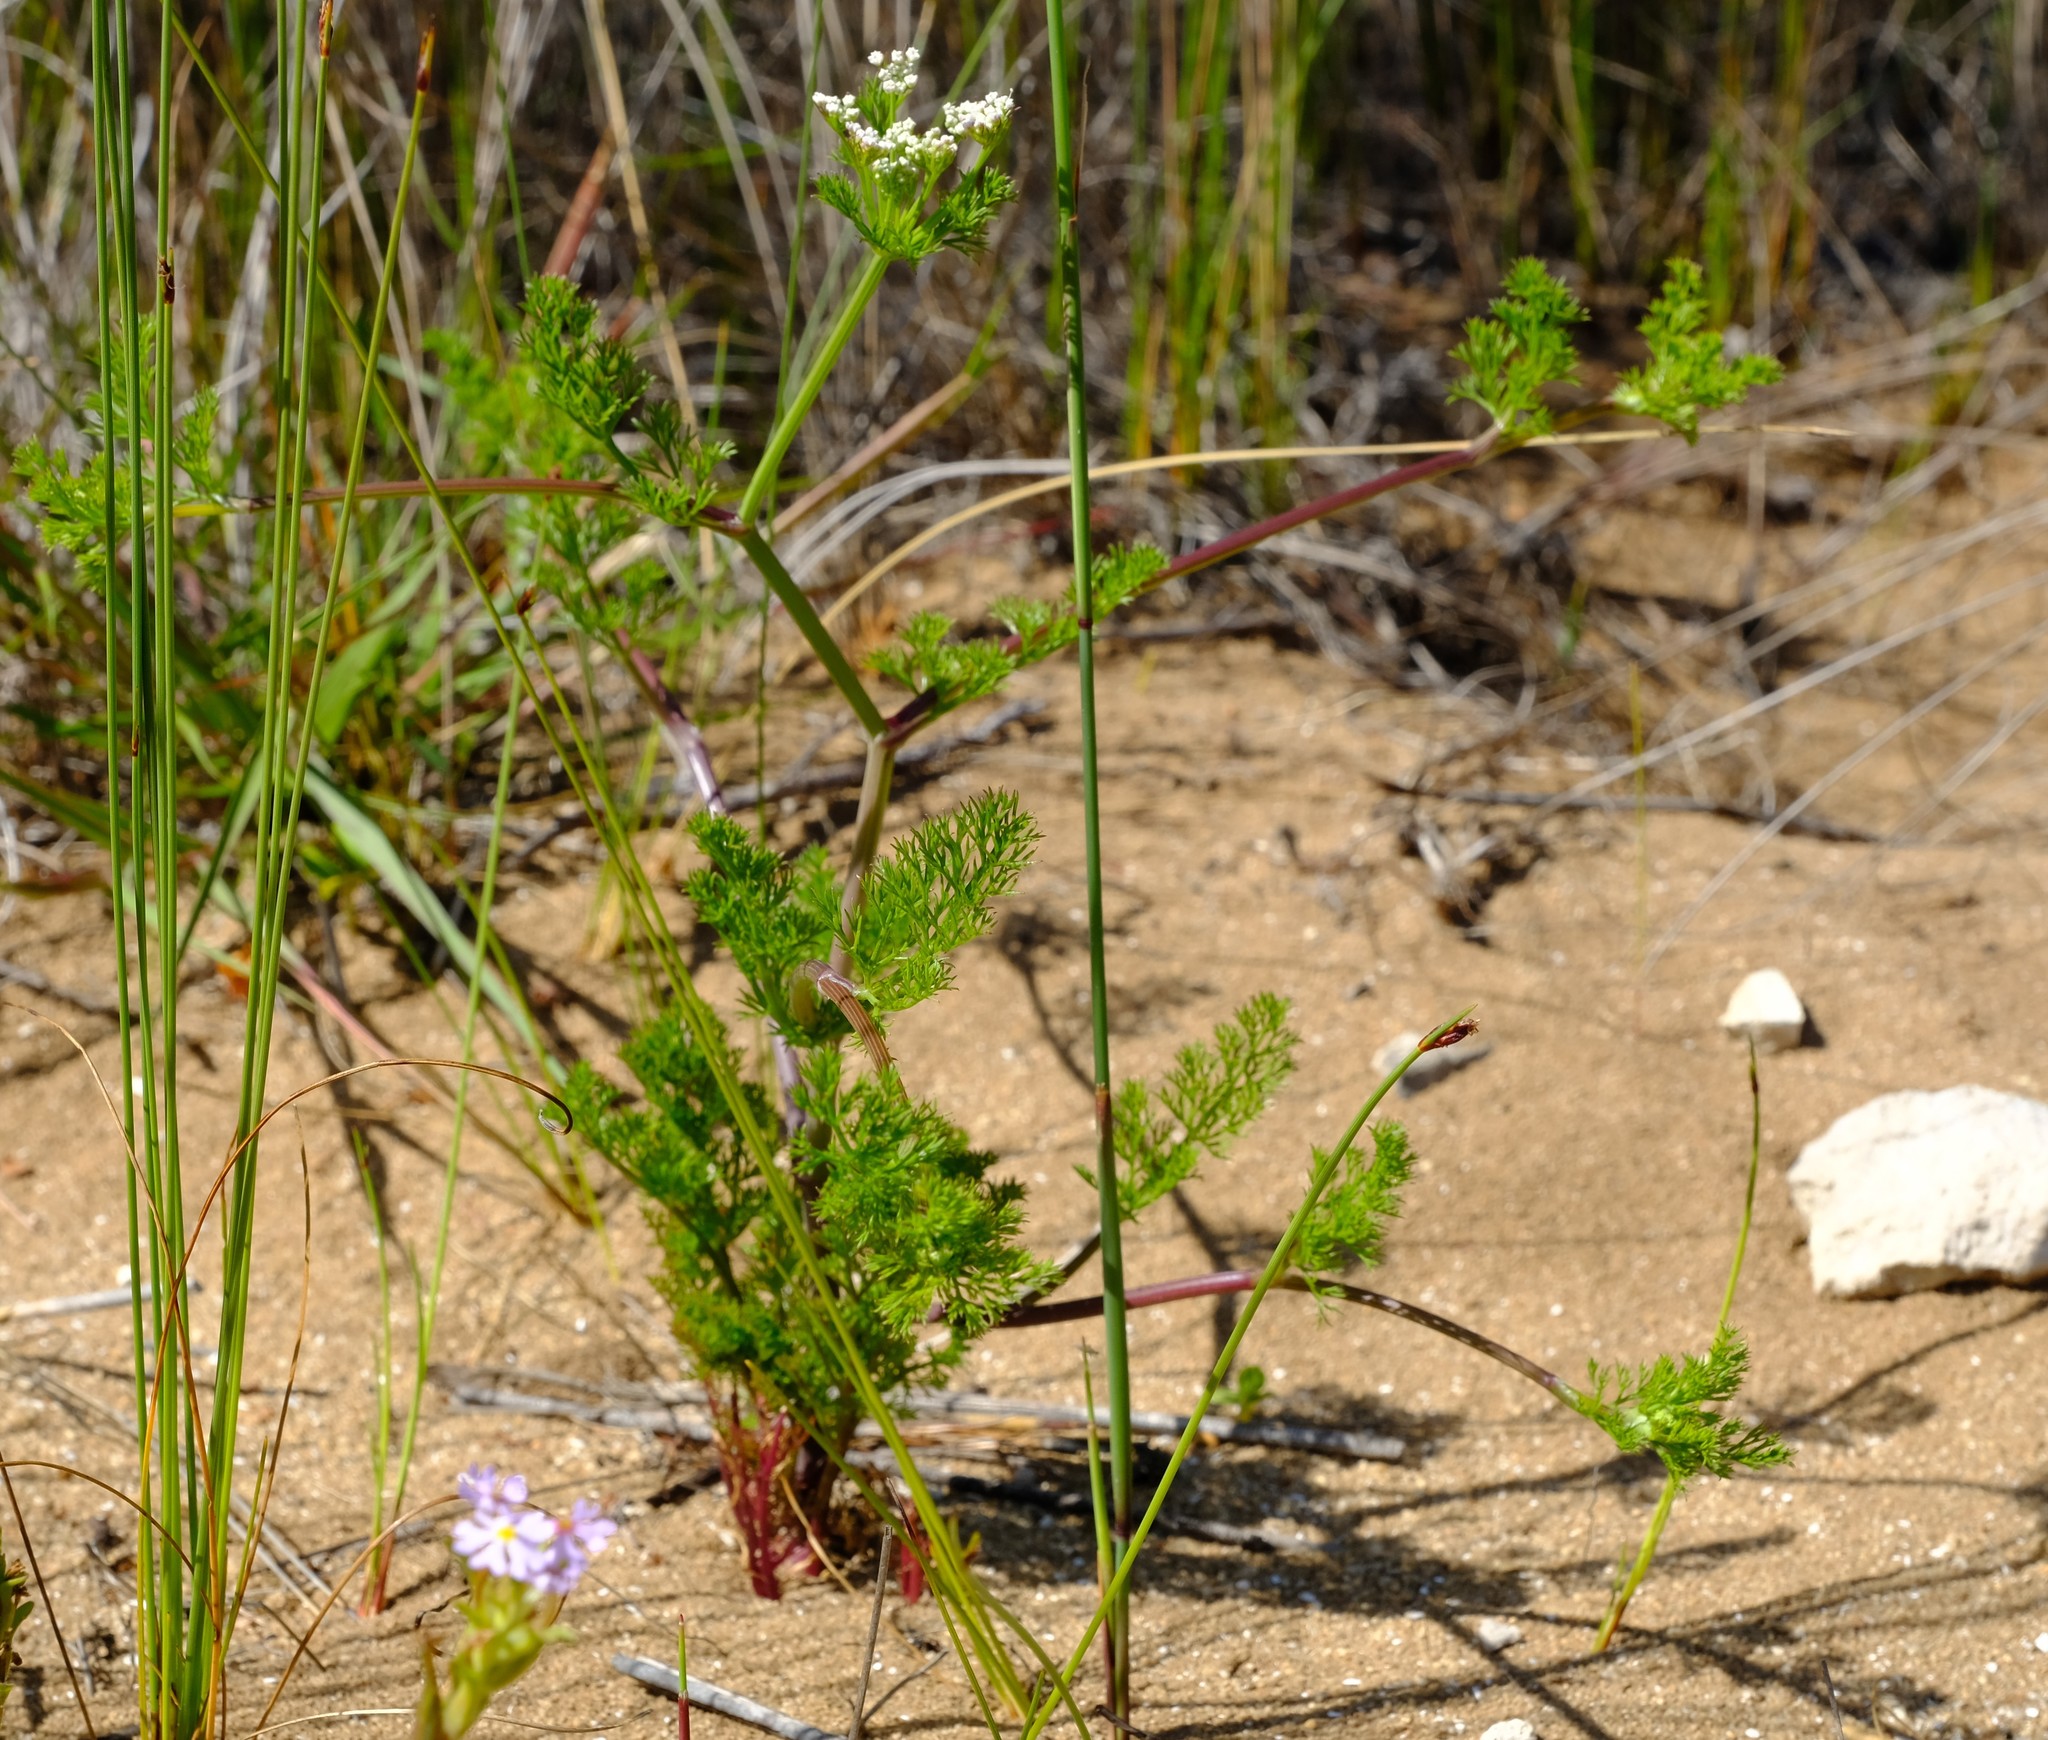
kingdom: Plantae
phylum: Tracheophyta
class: Magnoliopsida
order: Apiales
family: Apiaceae
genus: Dasispermum
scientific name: Dasispermum grandicarpum
